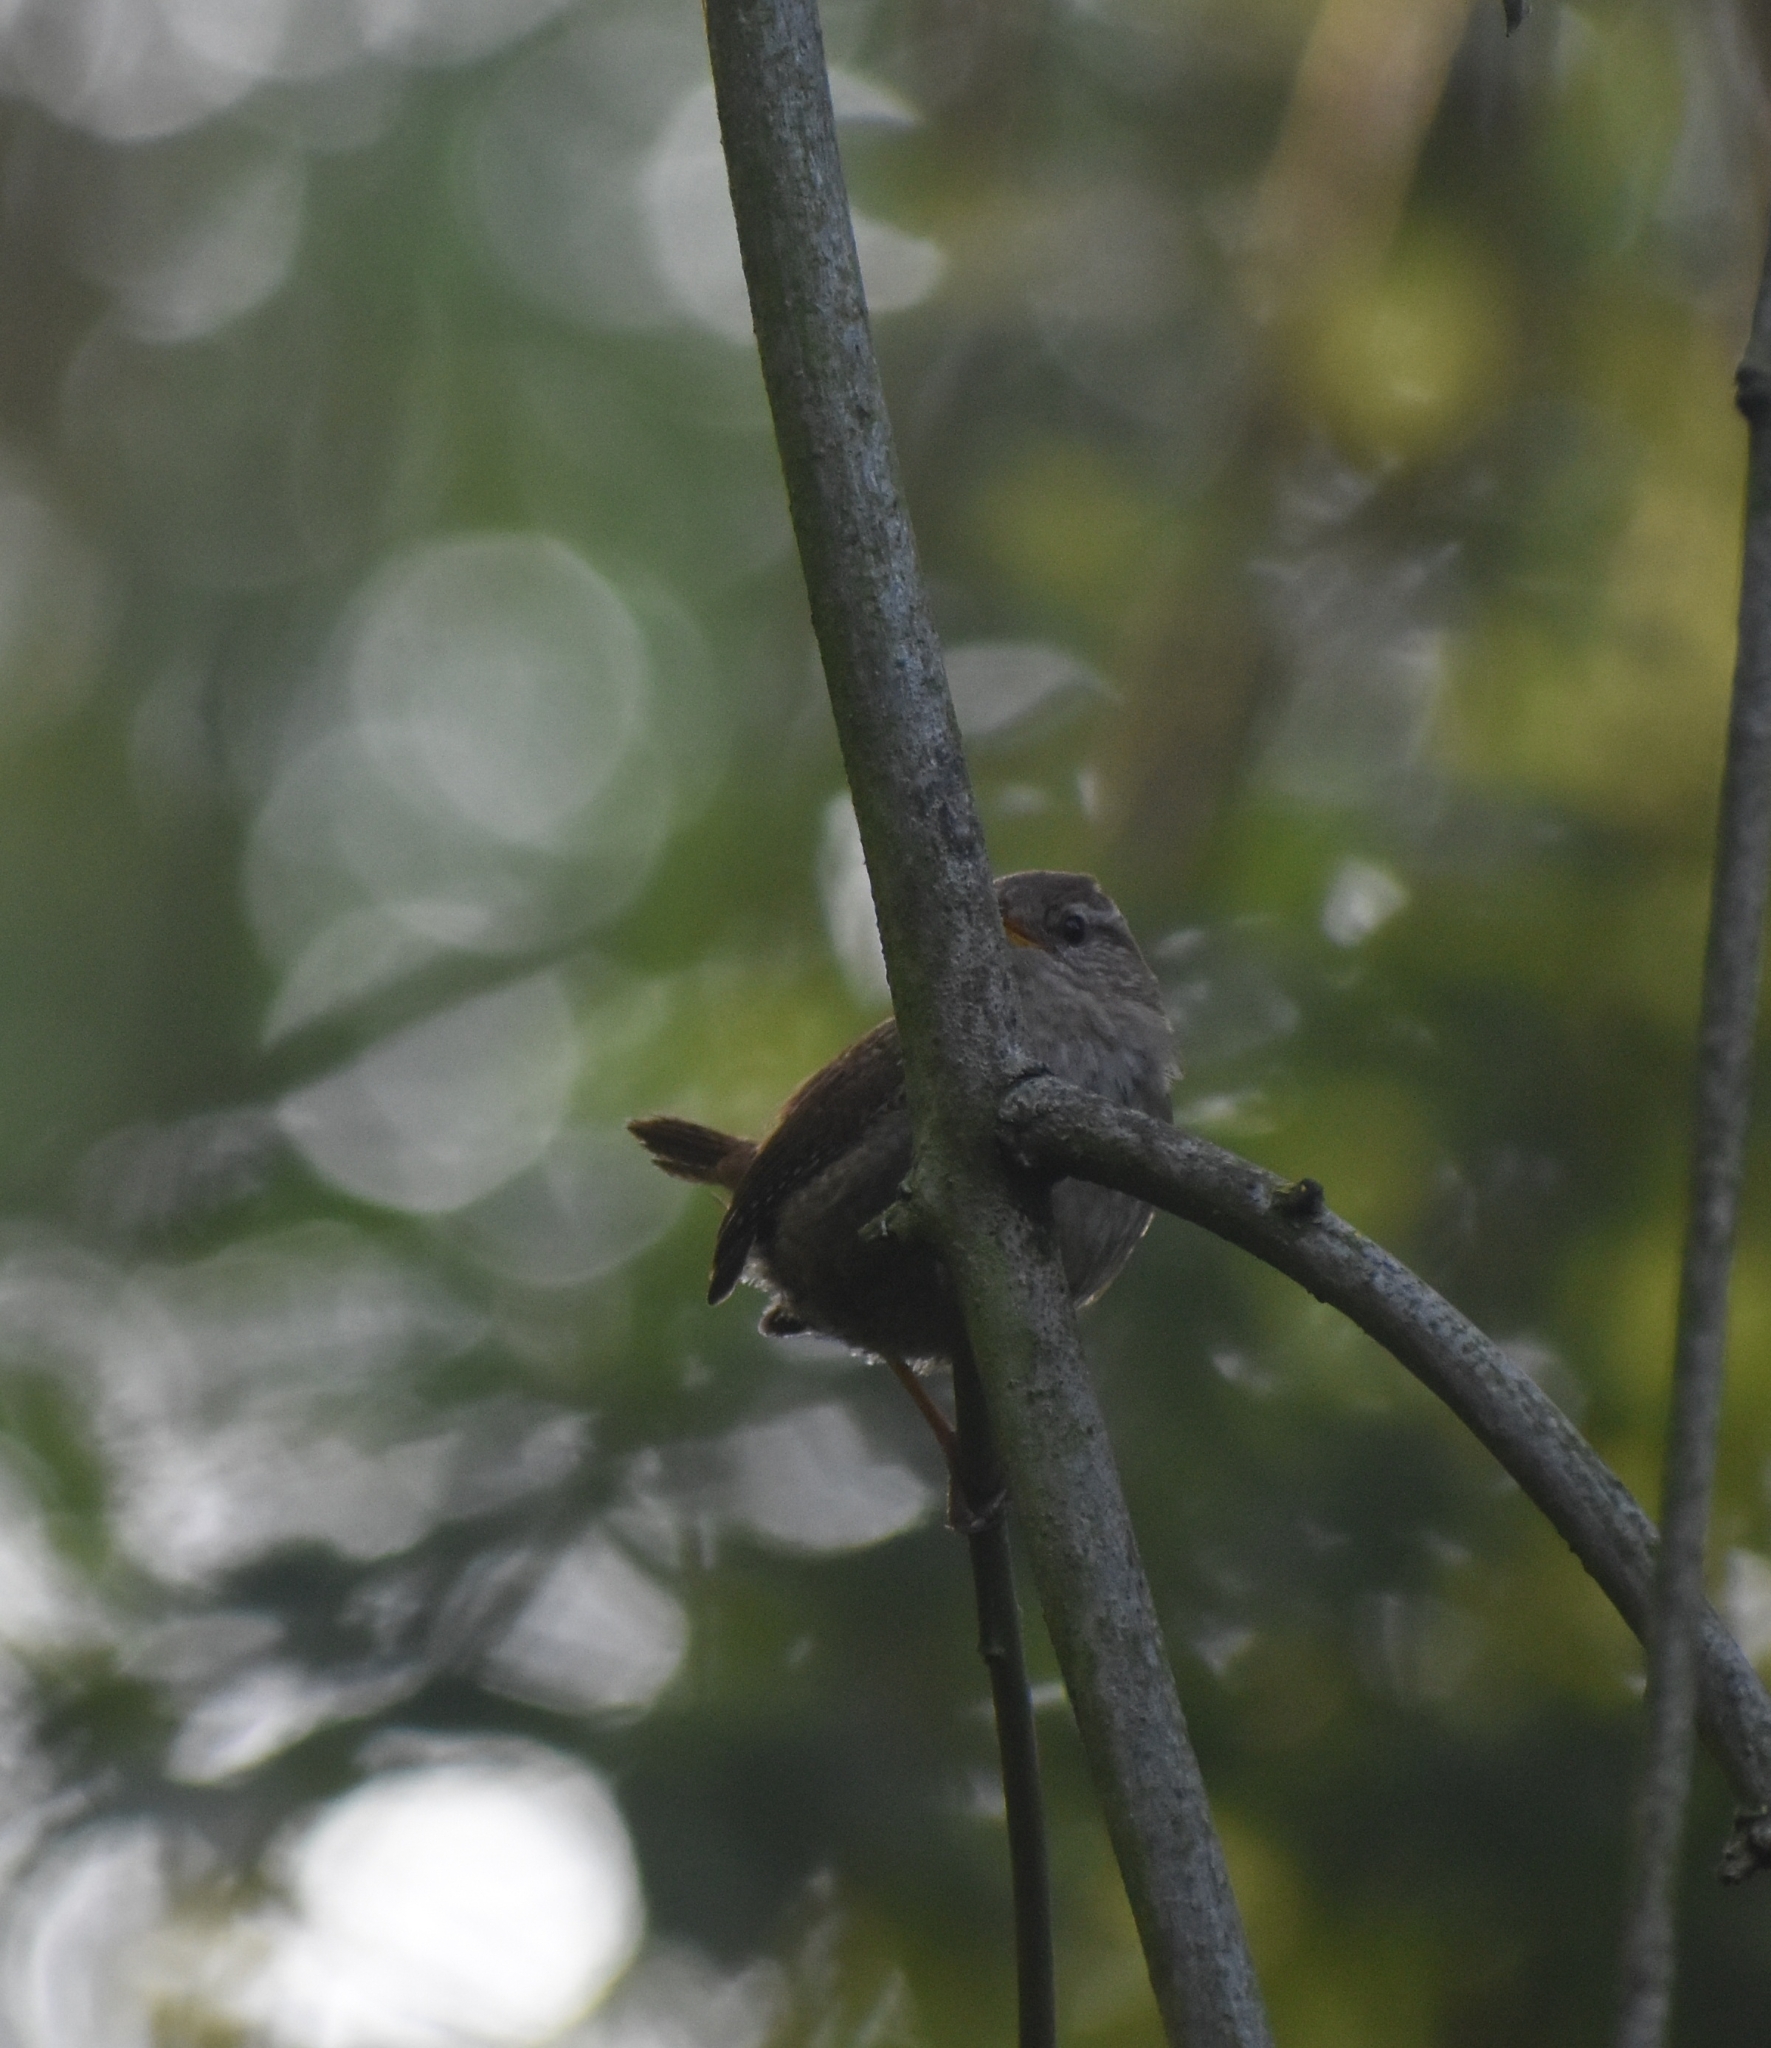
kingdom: Animalia
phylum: Chordata
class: Aves
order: Passeriformes
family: Troglodytidae
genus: Troglodytes
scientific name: Troglodytes troglodytes
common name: Eurasian wren
